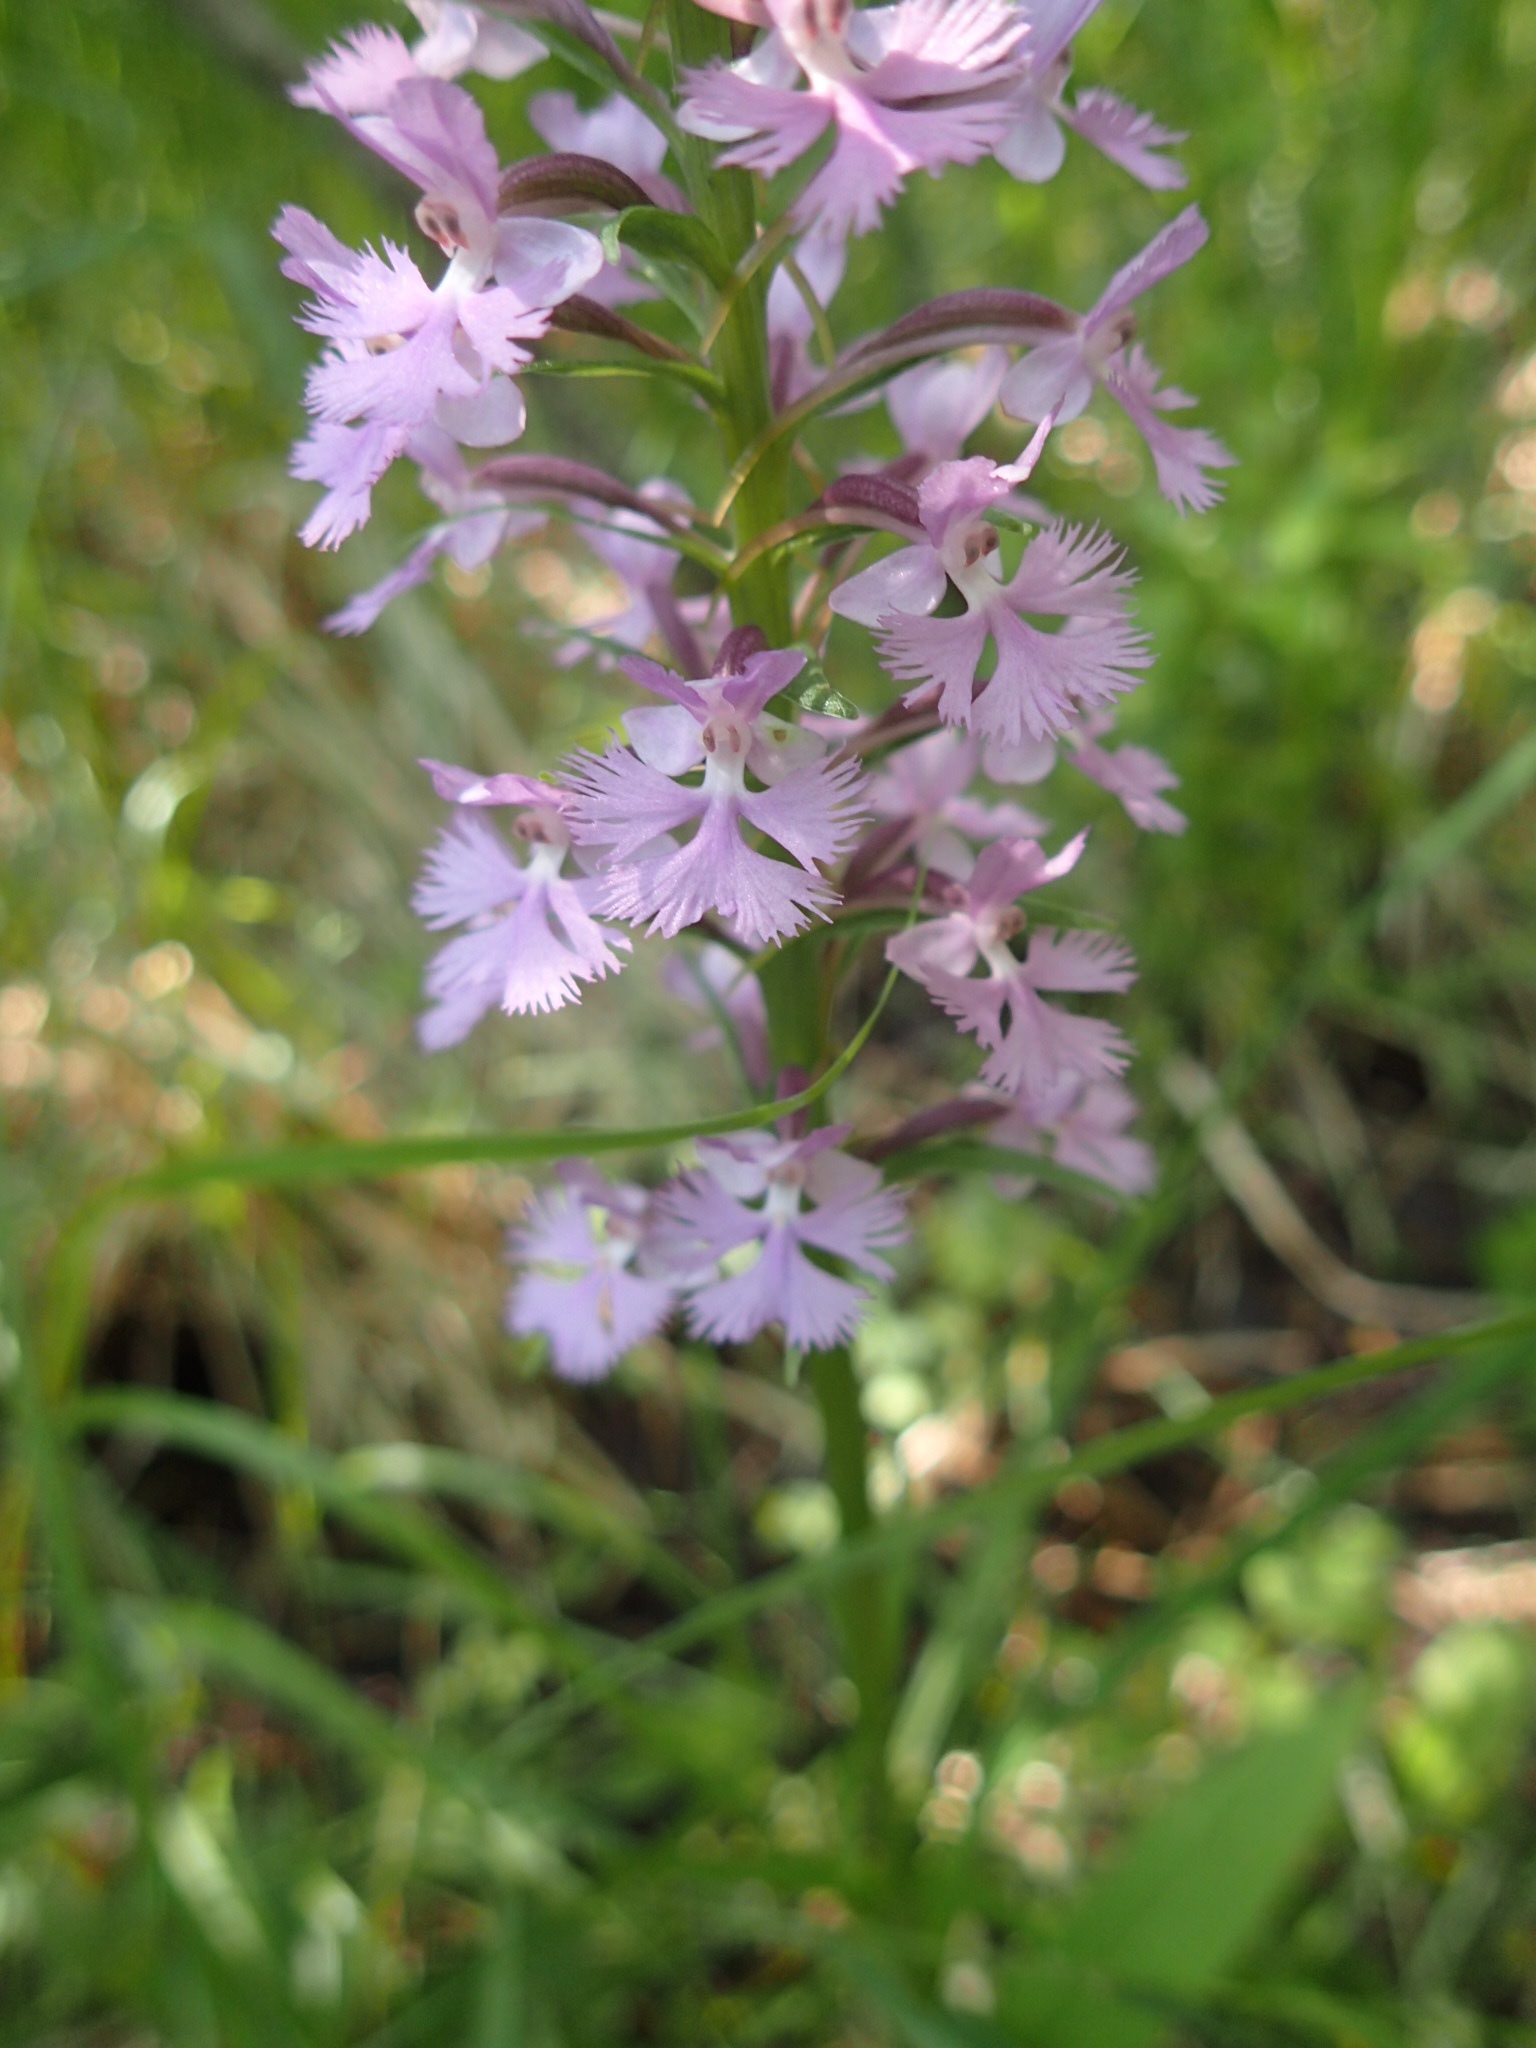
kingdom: Plantae
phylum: Tracheophyta
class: Liliopsida
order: Asparagales
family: Orchidaceae
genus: Platanthera
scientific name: Platanthera psycodes
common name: Lesser purple fringed orchid
